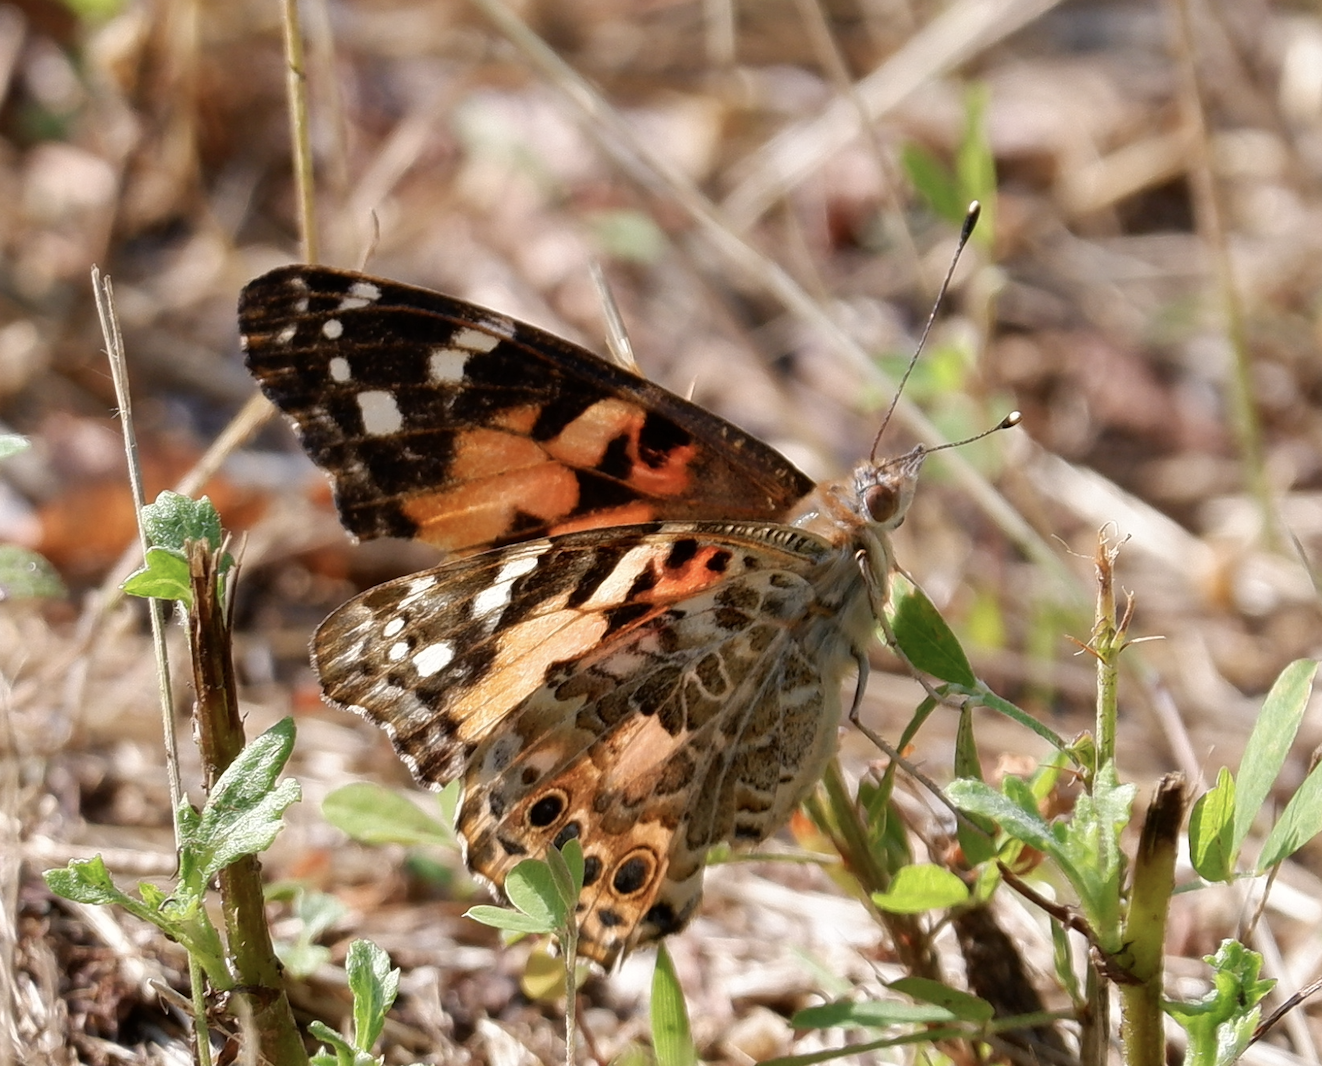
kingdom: Animalia
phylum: Arthropoda
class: Insecta
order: Lepidoptera
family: Nymphalidae
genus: Vanessa
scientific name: Vanessa cardui
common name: Painted lady
